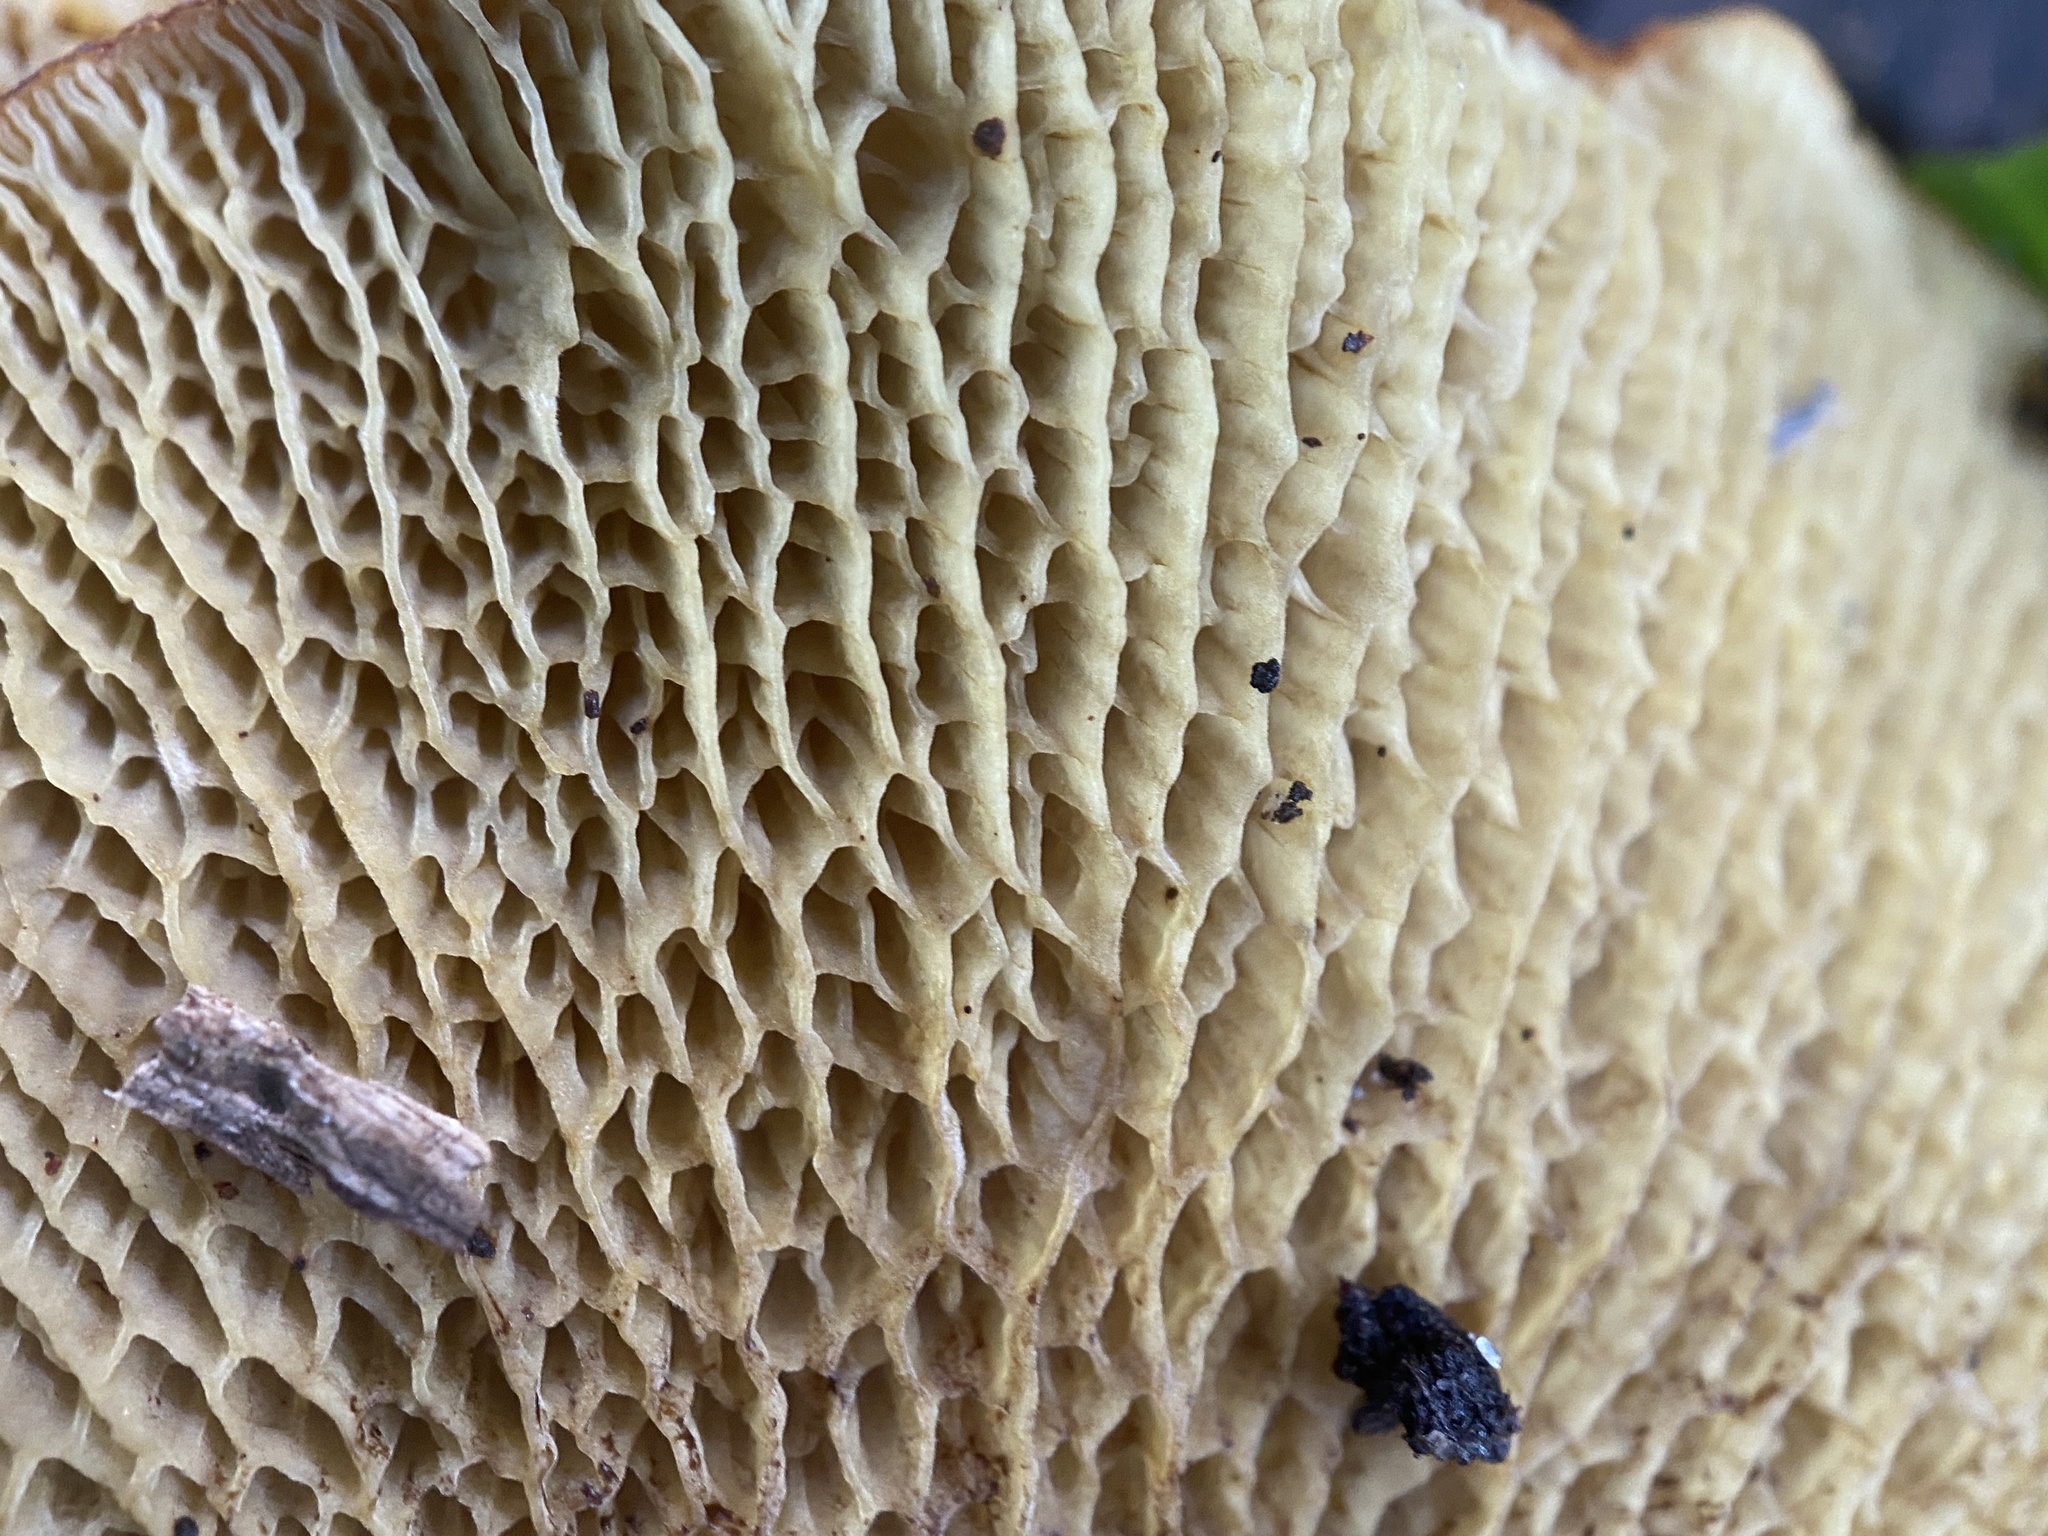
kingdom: Fungi
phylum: Basidiomycota
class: Agaricomycetes
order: Boletales
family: Boletinellaceae
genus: Boletinellus
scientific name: Boletinellus merulioides
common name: Ash tree bolete
